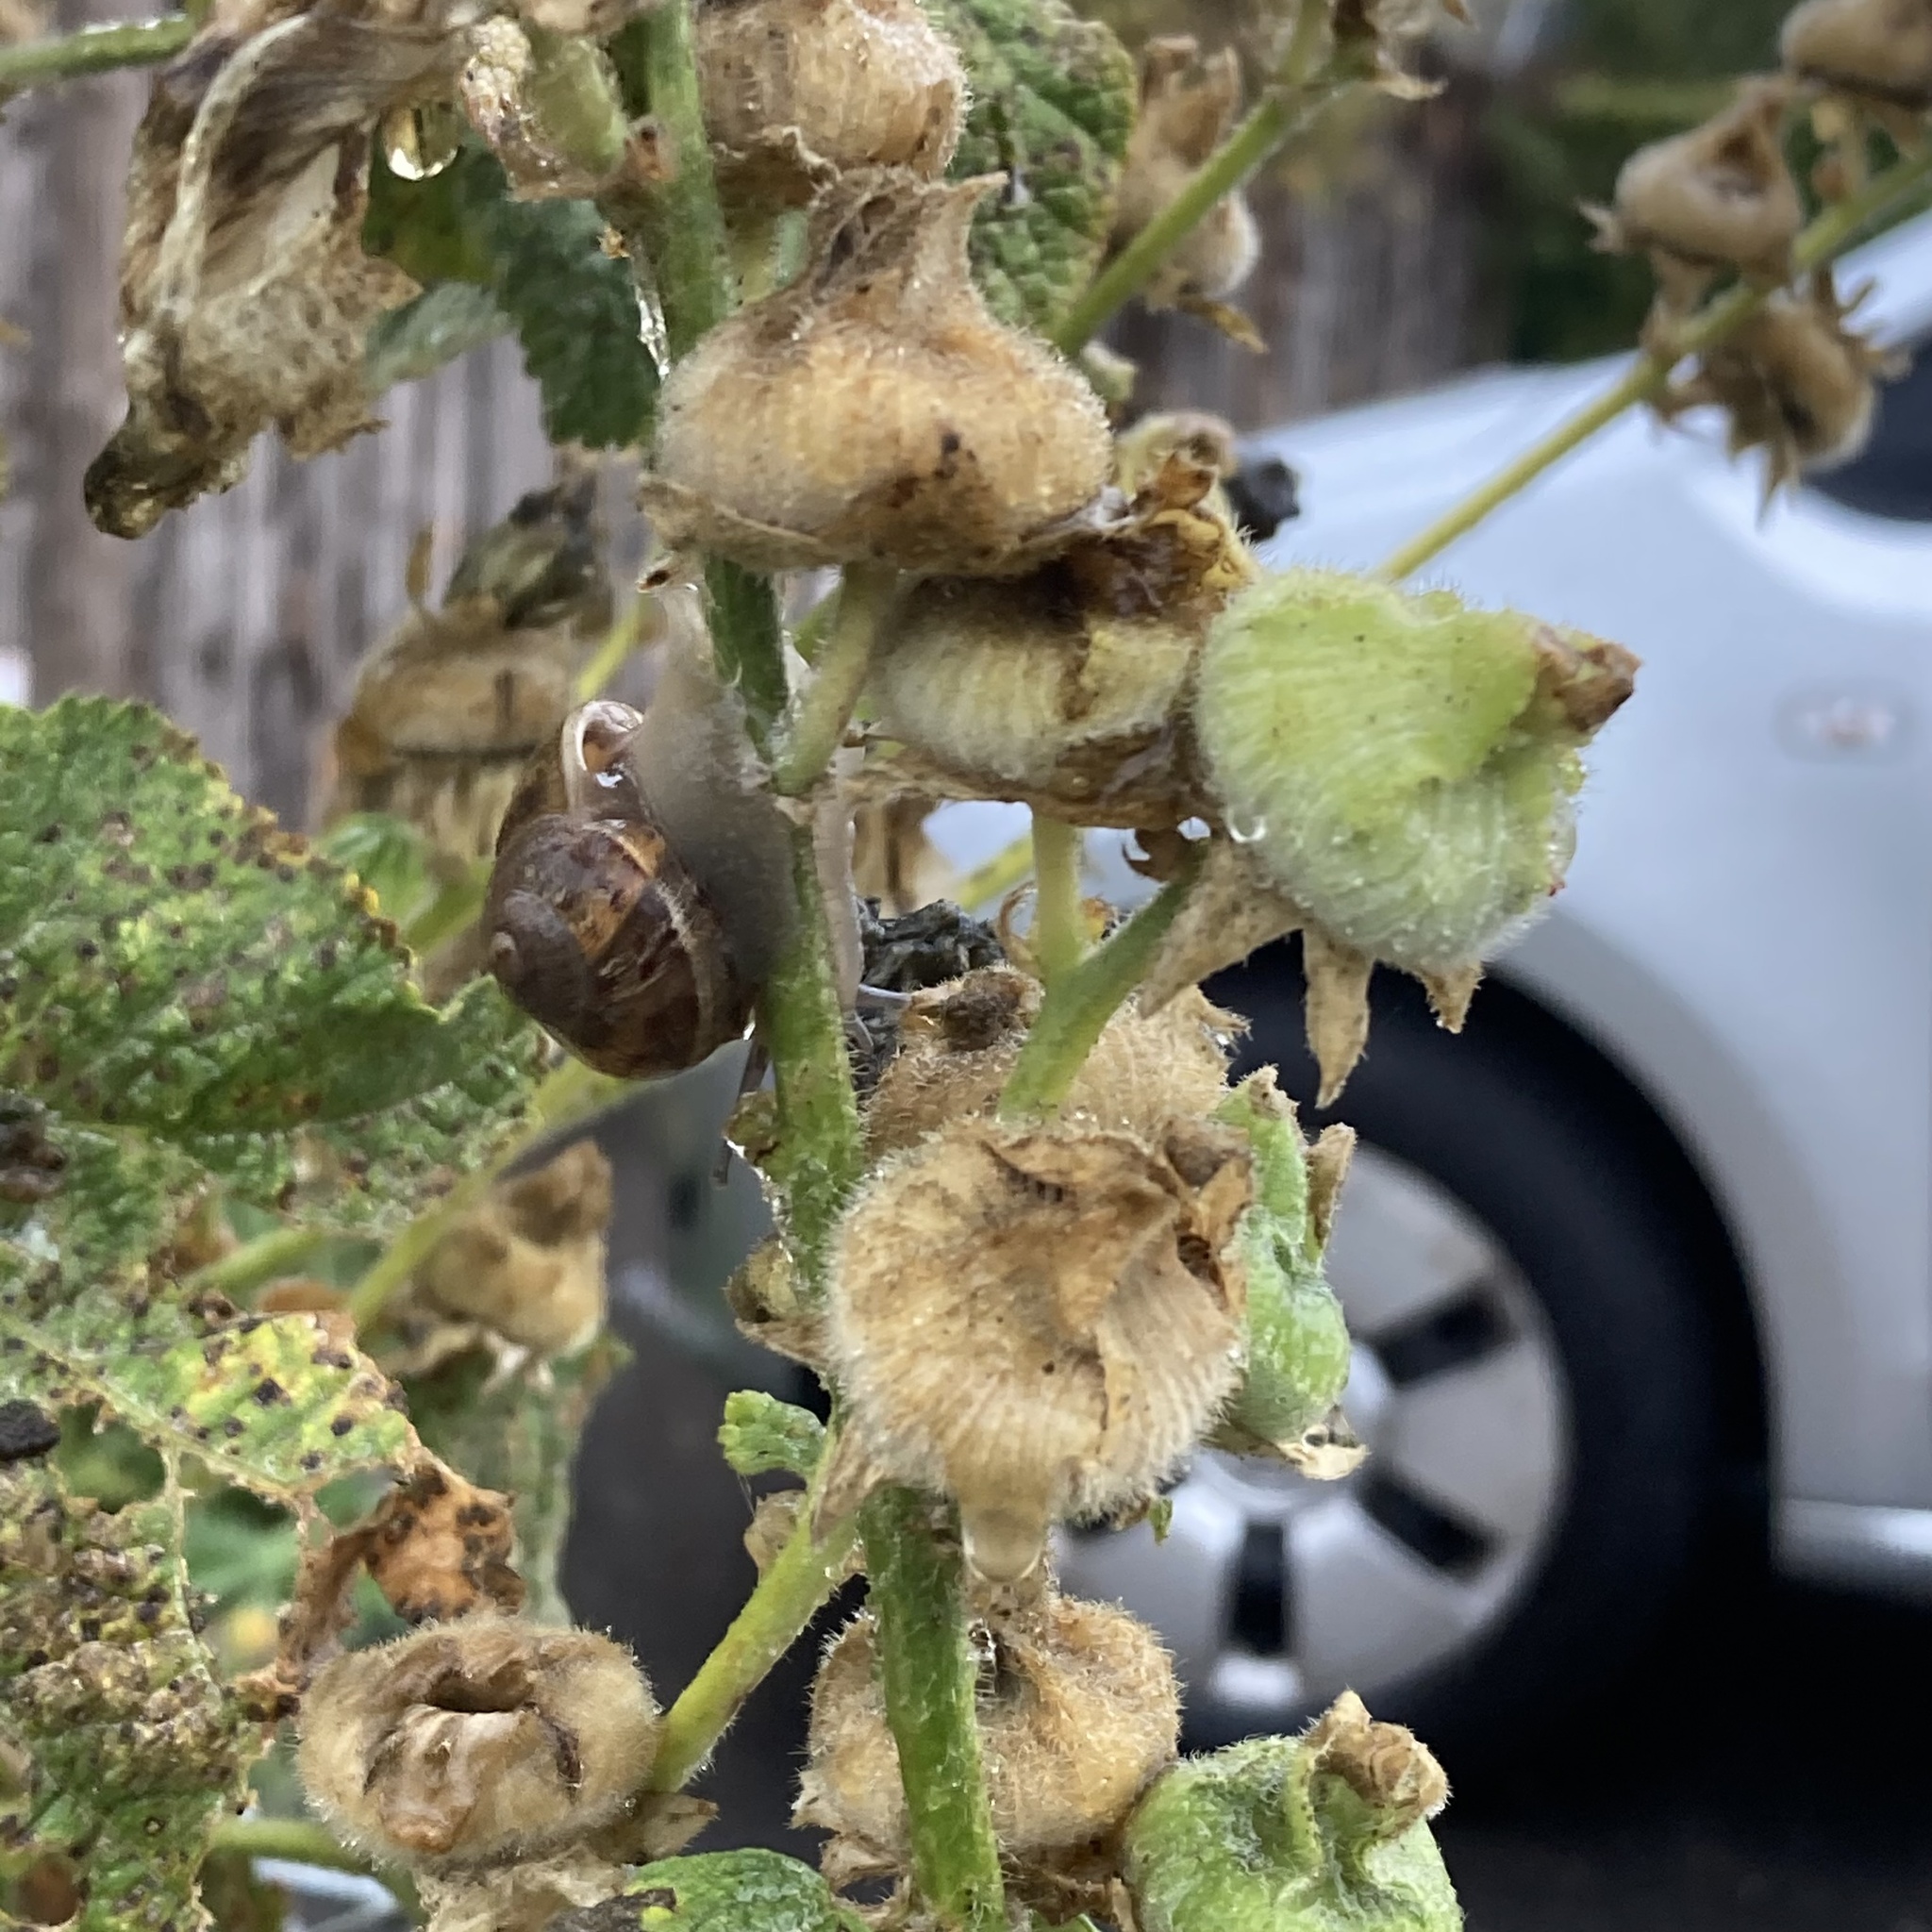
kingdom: Animalia
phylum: Mollusca
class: Gastropoda
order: Stylommatophora
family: Helicidae
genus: Cornu
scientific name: Cornu aspersum
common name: Brown garden snail
